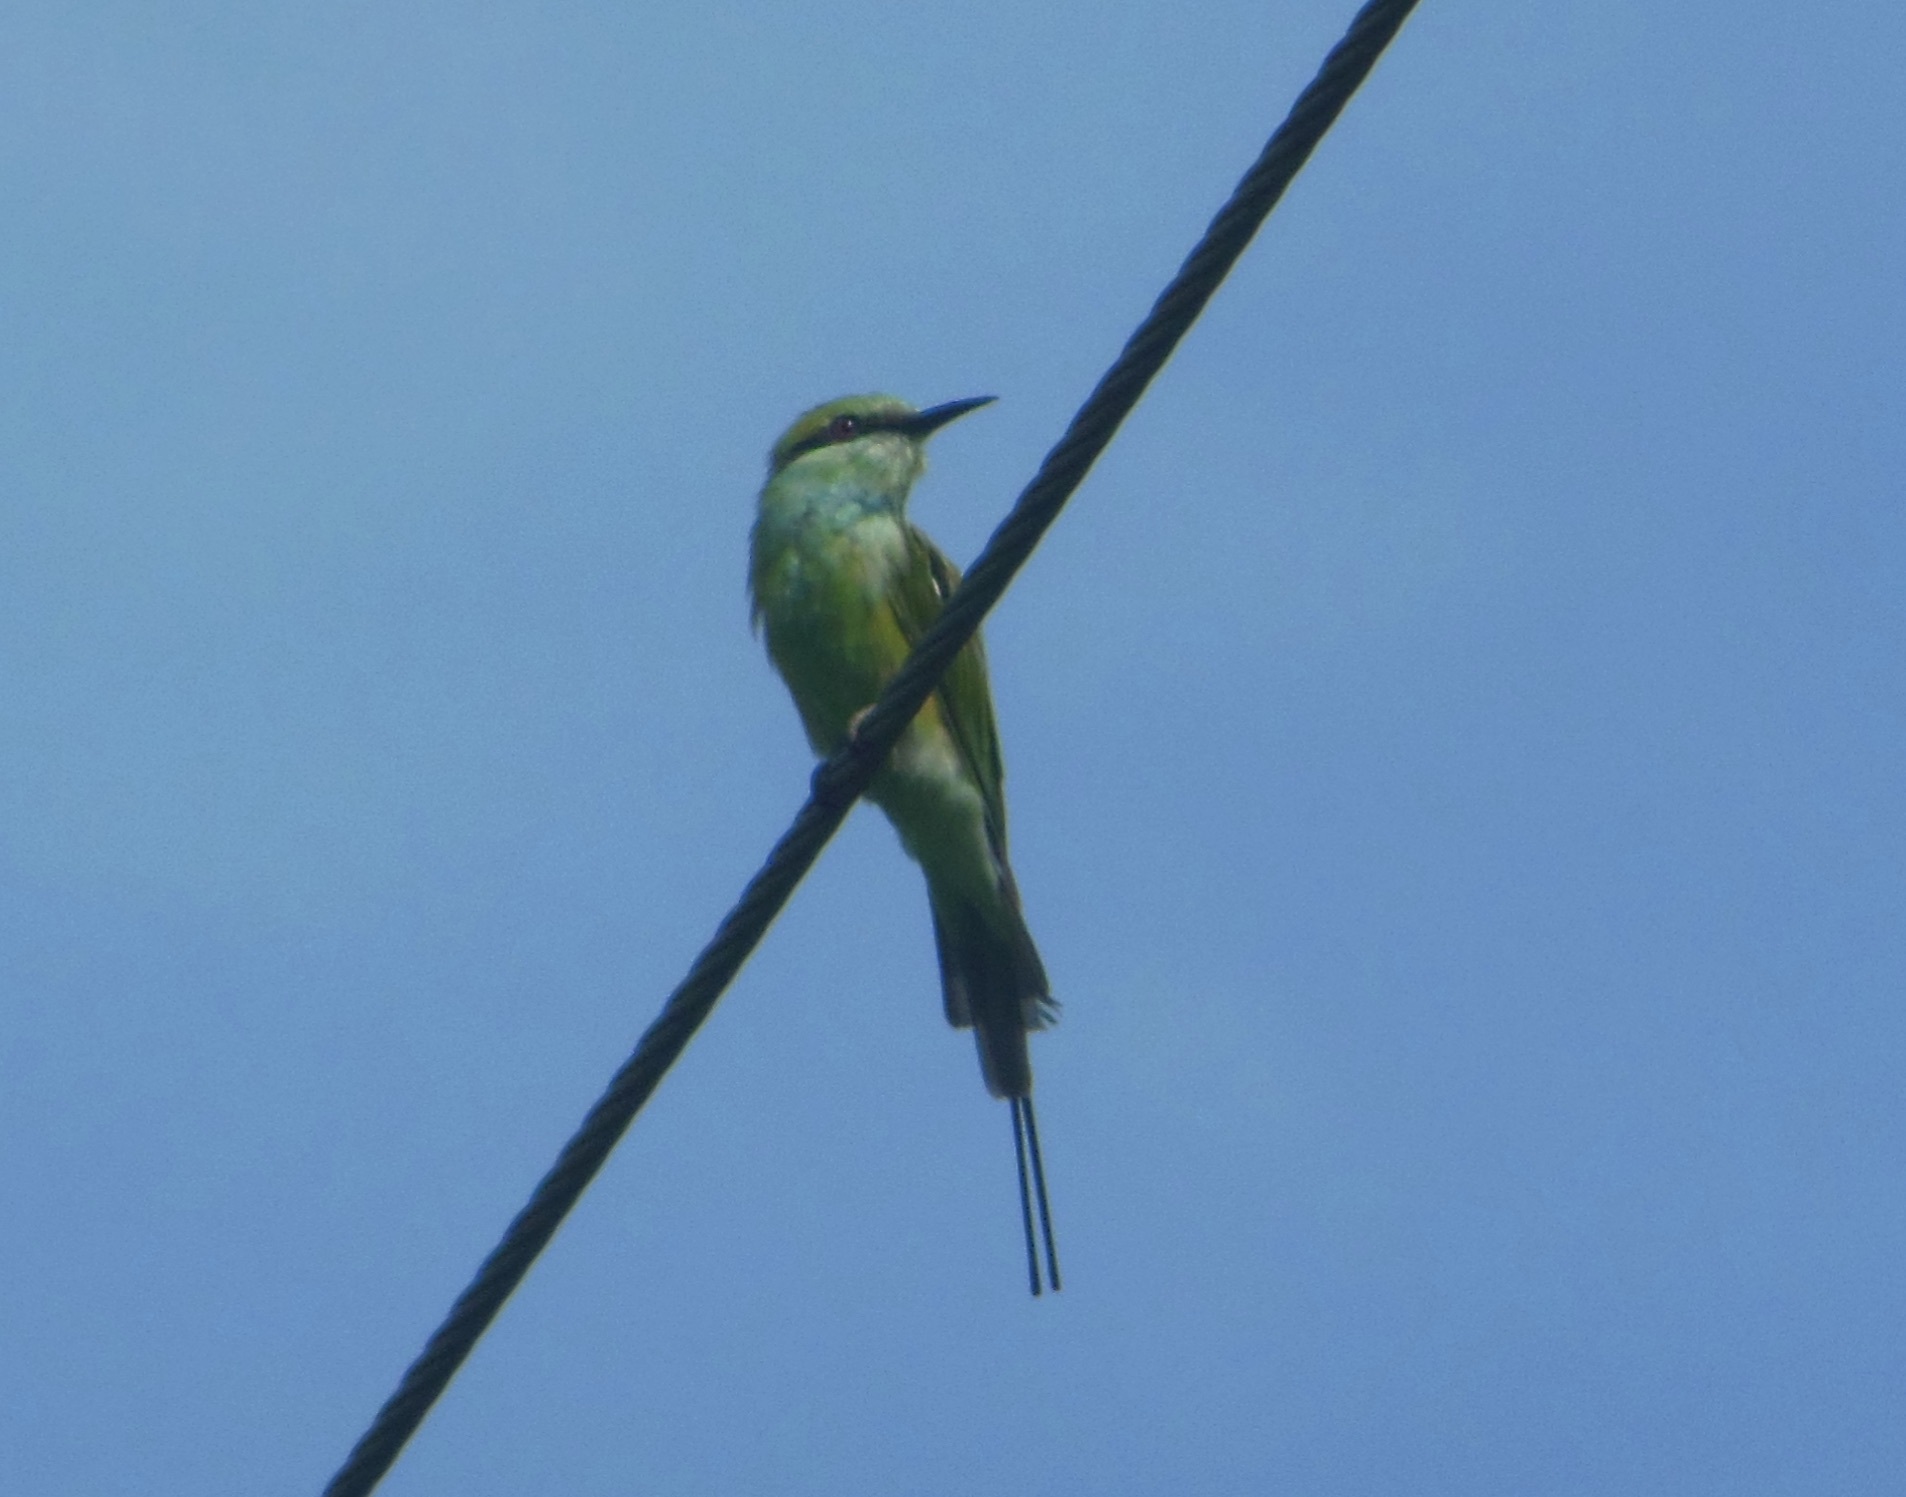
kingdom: Animalia
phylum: Chordata
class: Aves
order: Coraciiformes
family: Meropidae
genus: Merops
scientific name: Merops orientalis
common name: Green bee-eater
